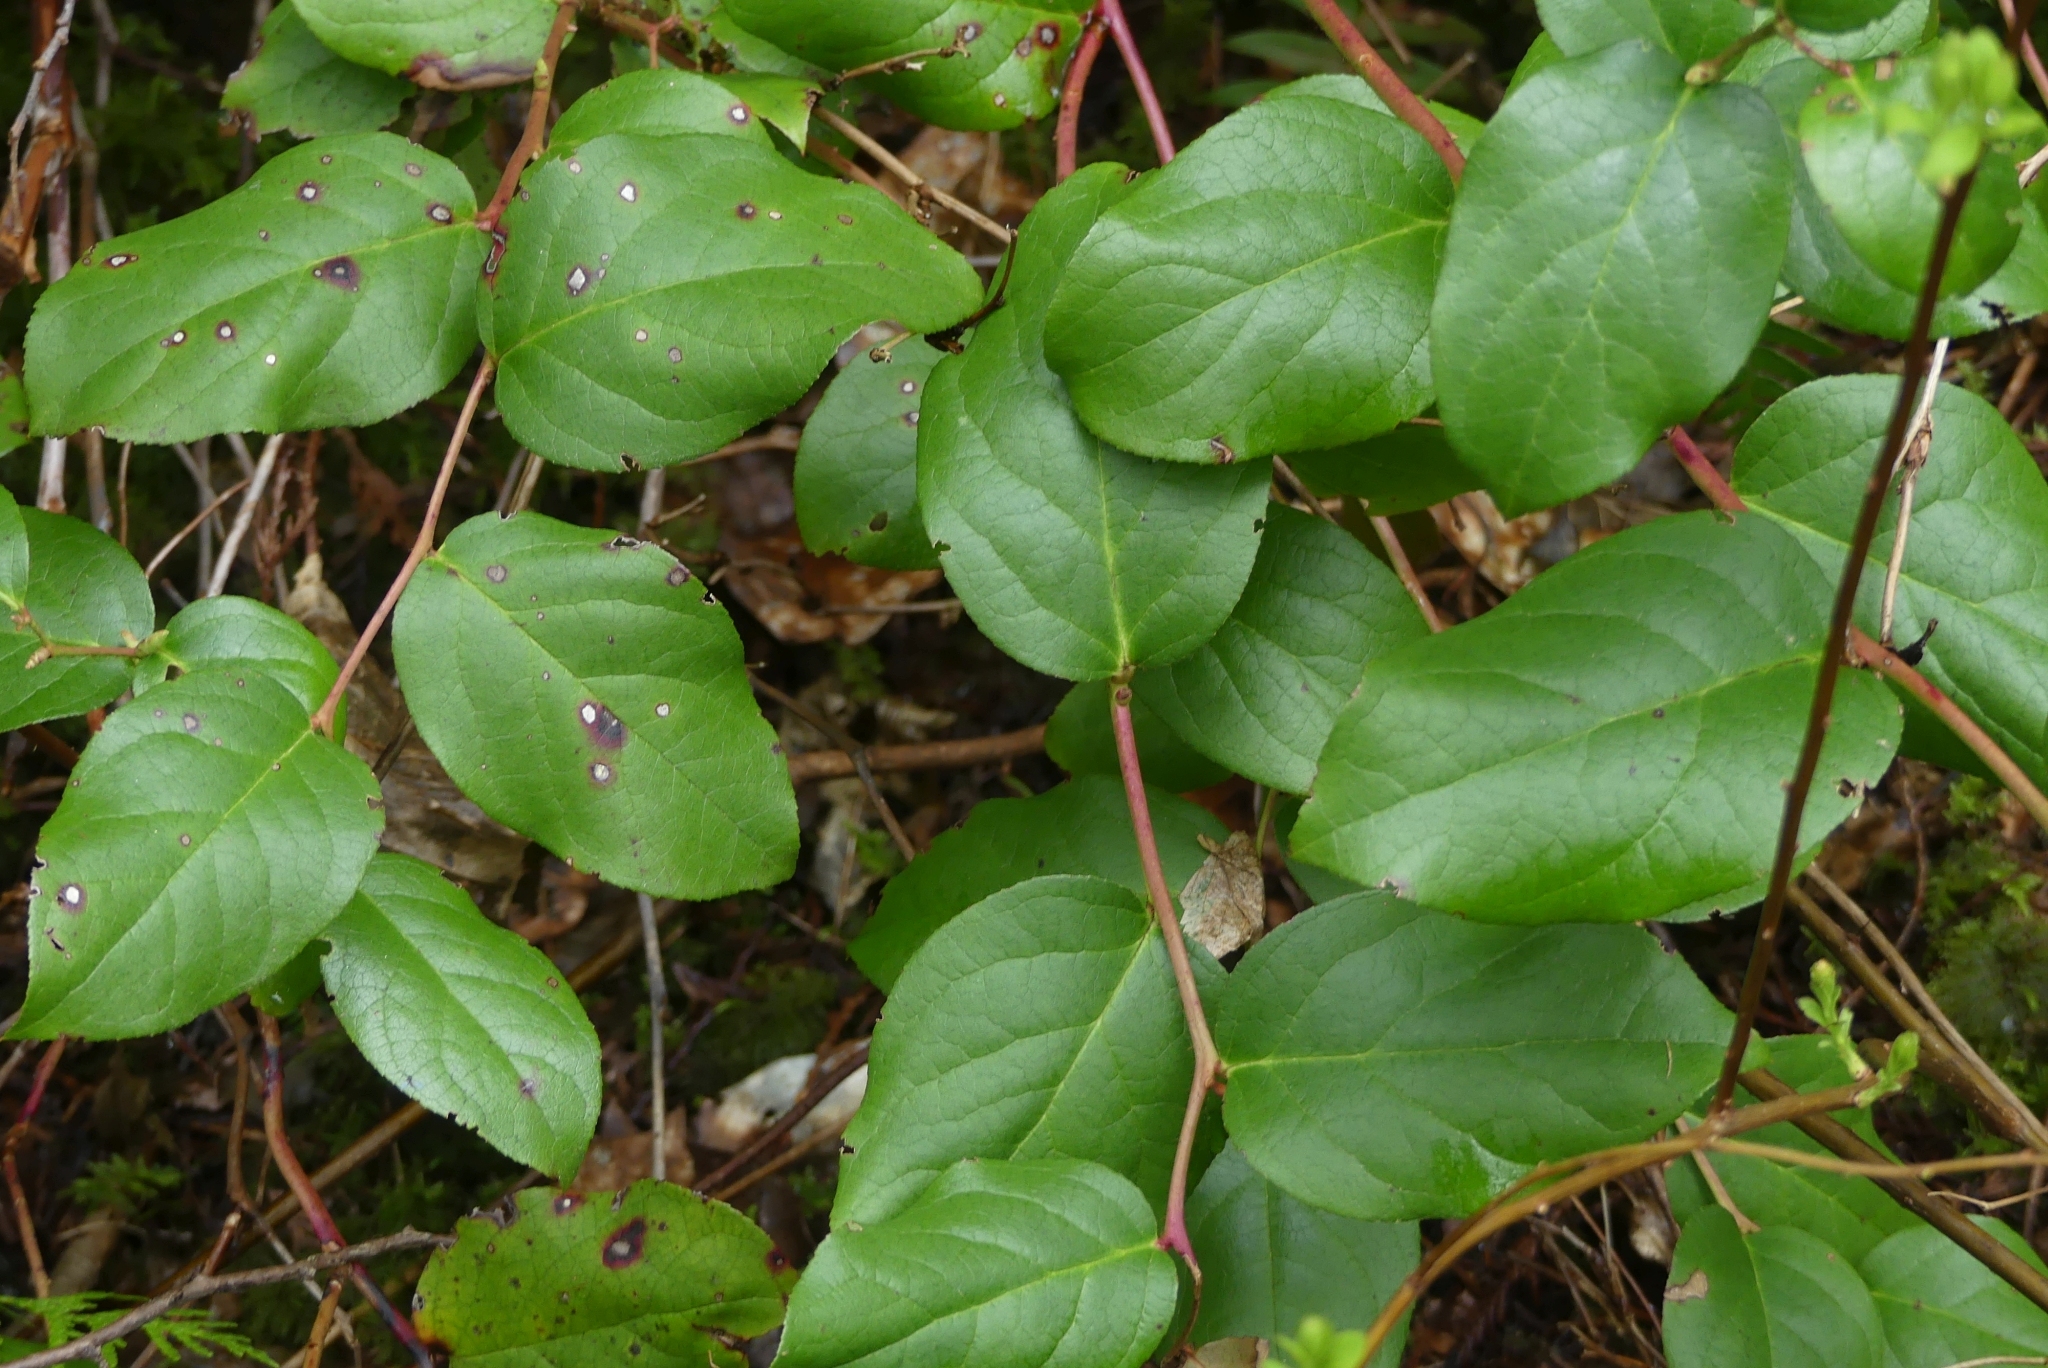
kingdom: Plantae
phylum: Tracheophyta
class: Magnoliopsida
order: Ericales
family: Ericaceae
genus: Gaultheria
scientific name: Gaultheria shallon
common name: Shallon
